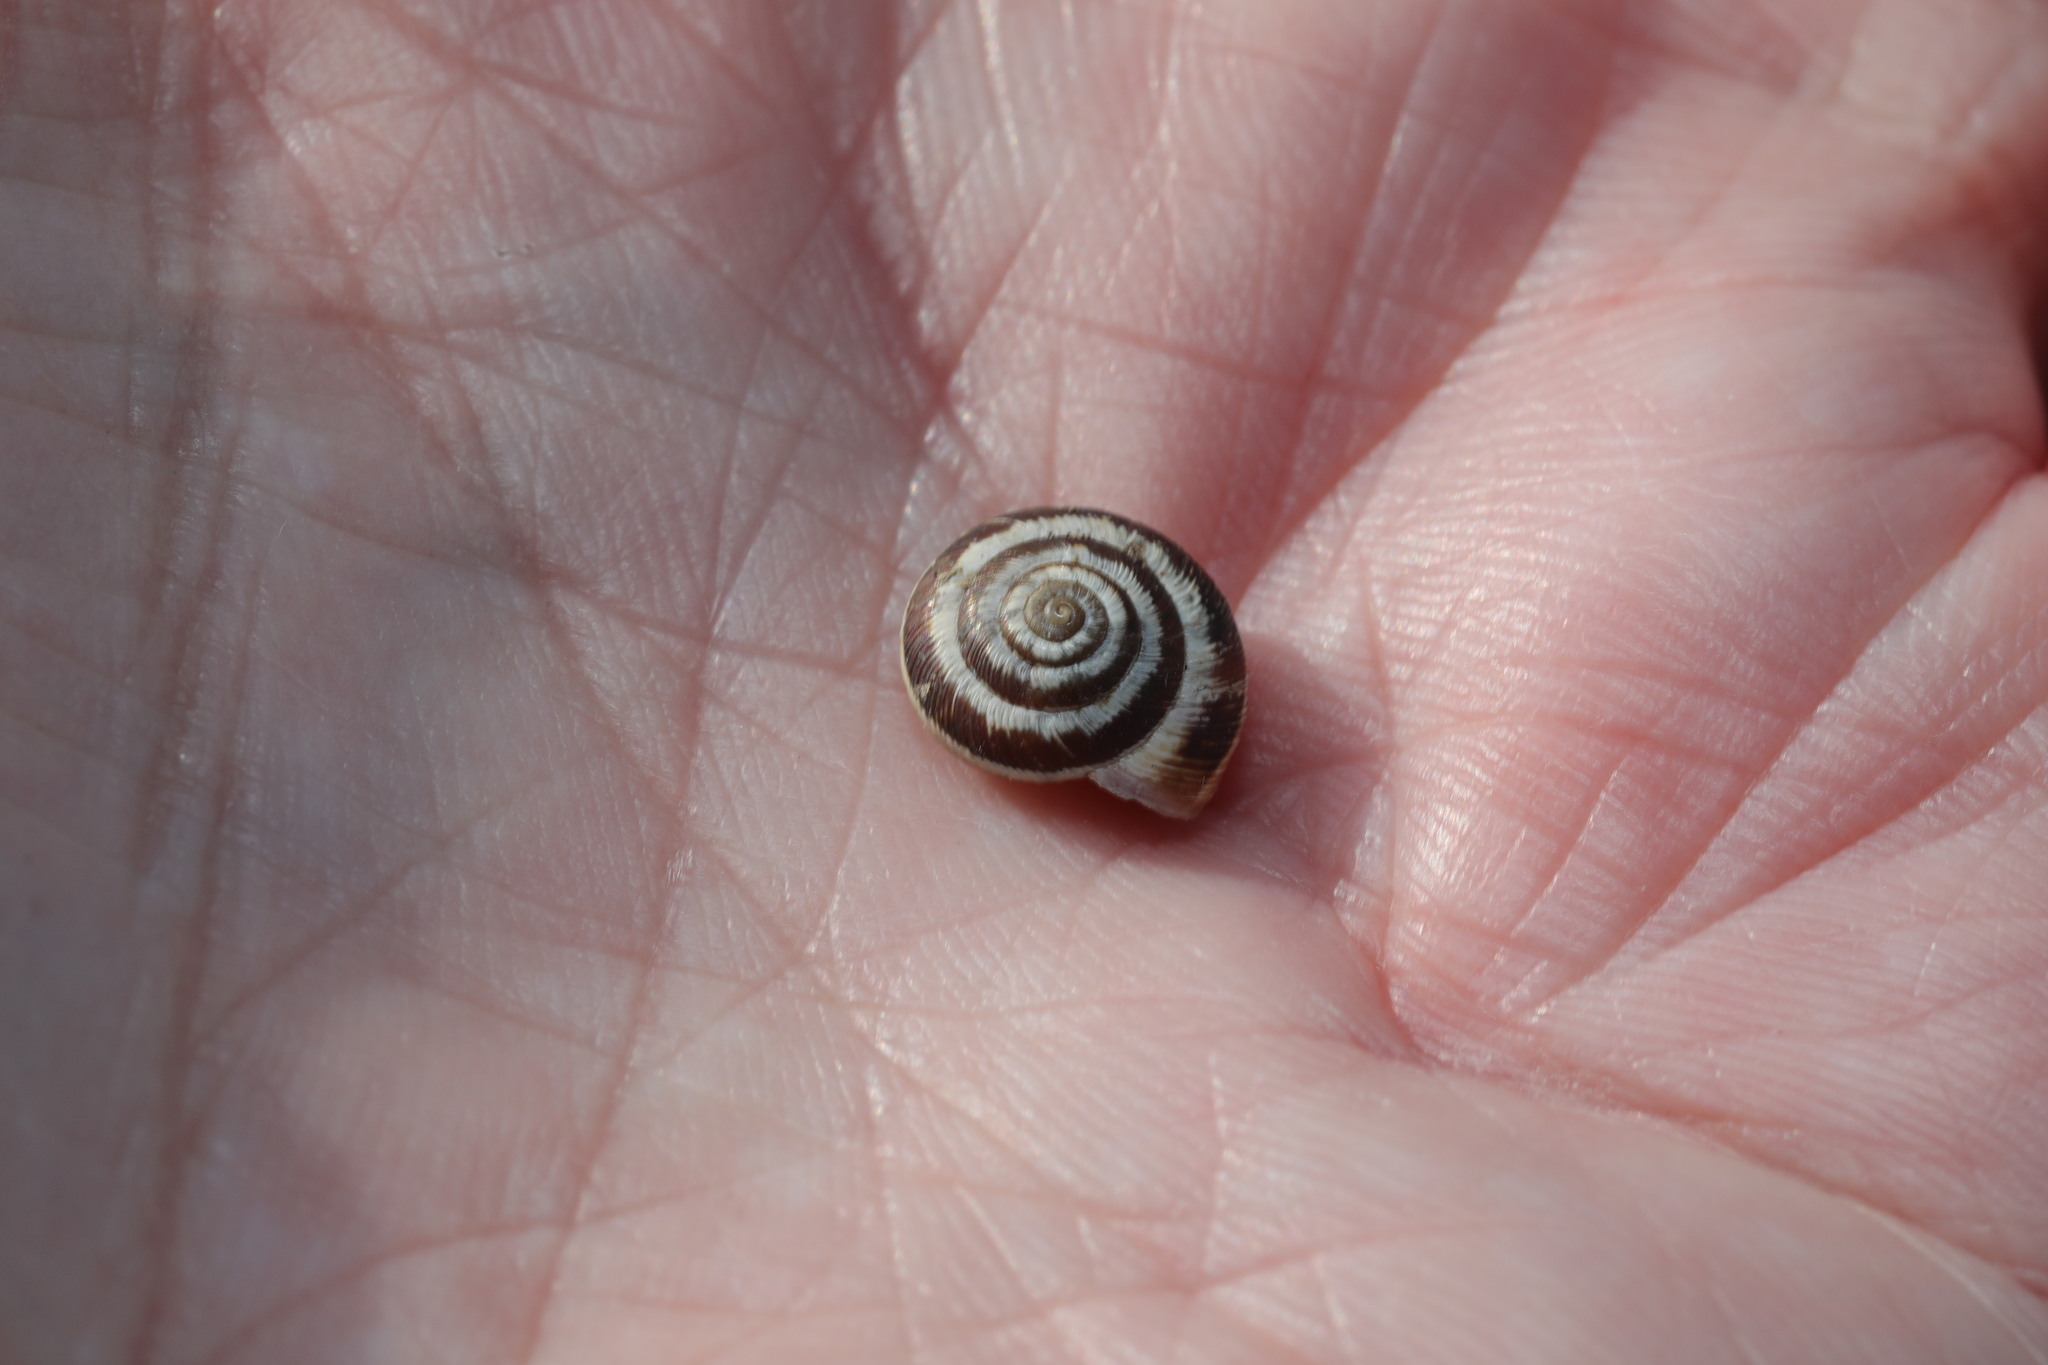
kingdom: Animalia
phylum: Mollusca
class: Gastropoda
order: Stylommatophora
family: Geomitridae
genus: Helicella
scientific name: Helicella itala
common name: Heath snail
